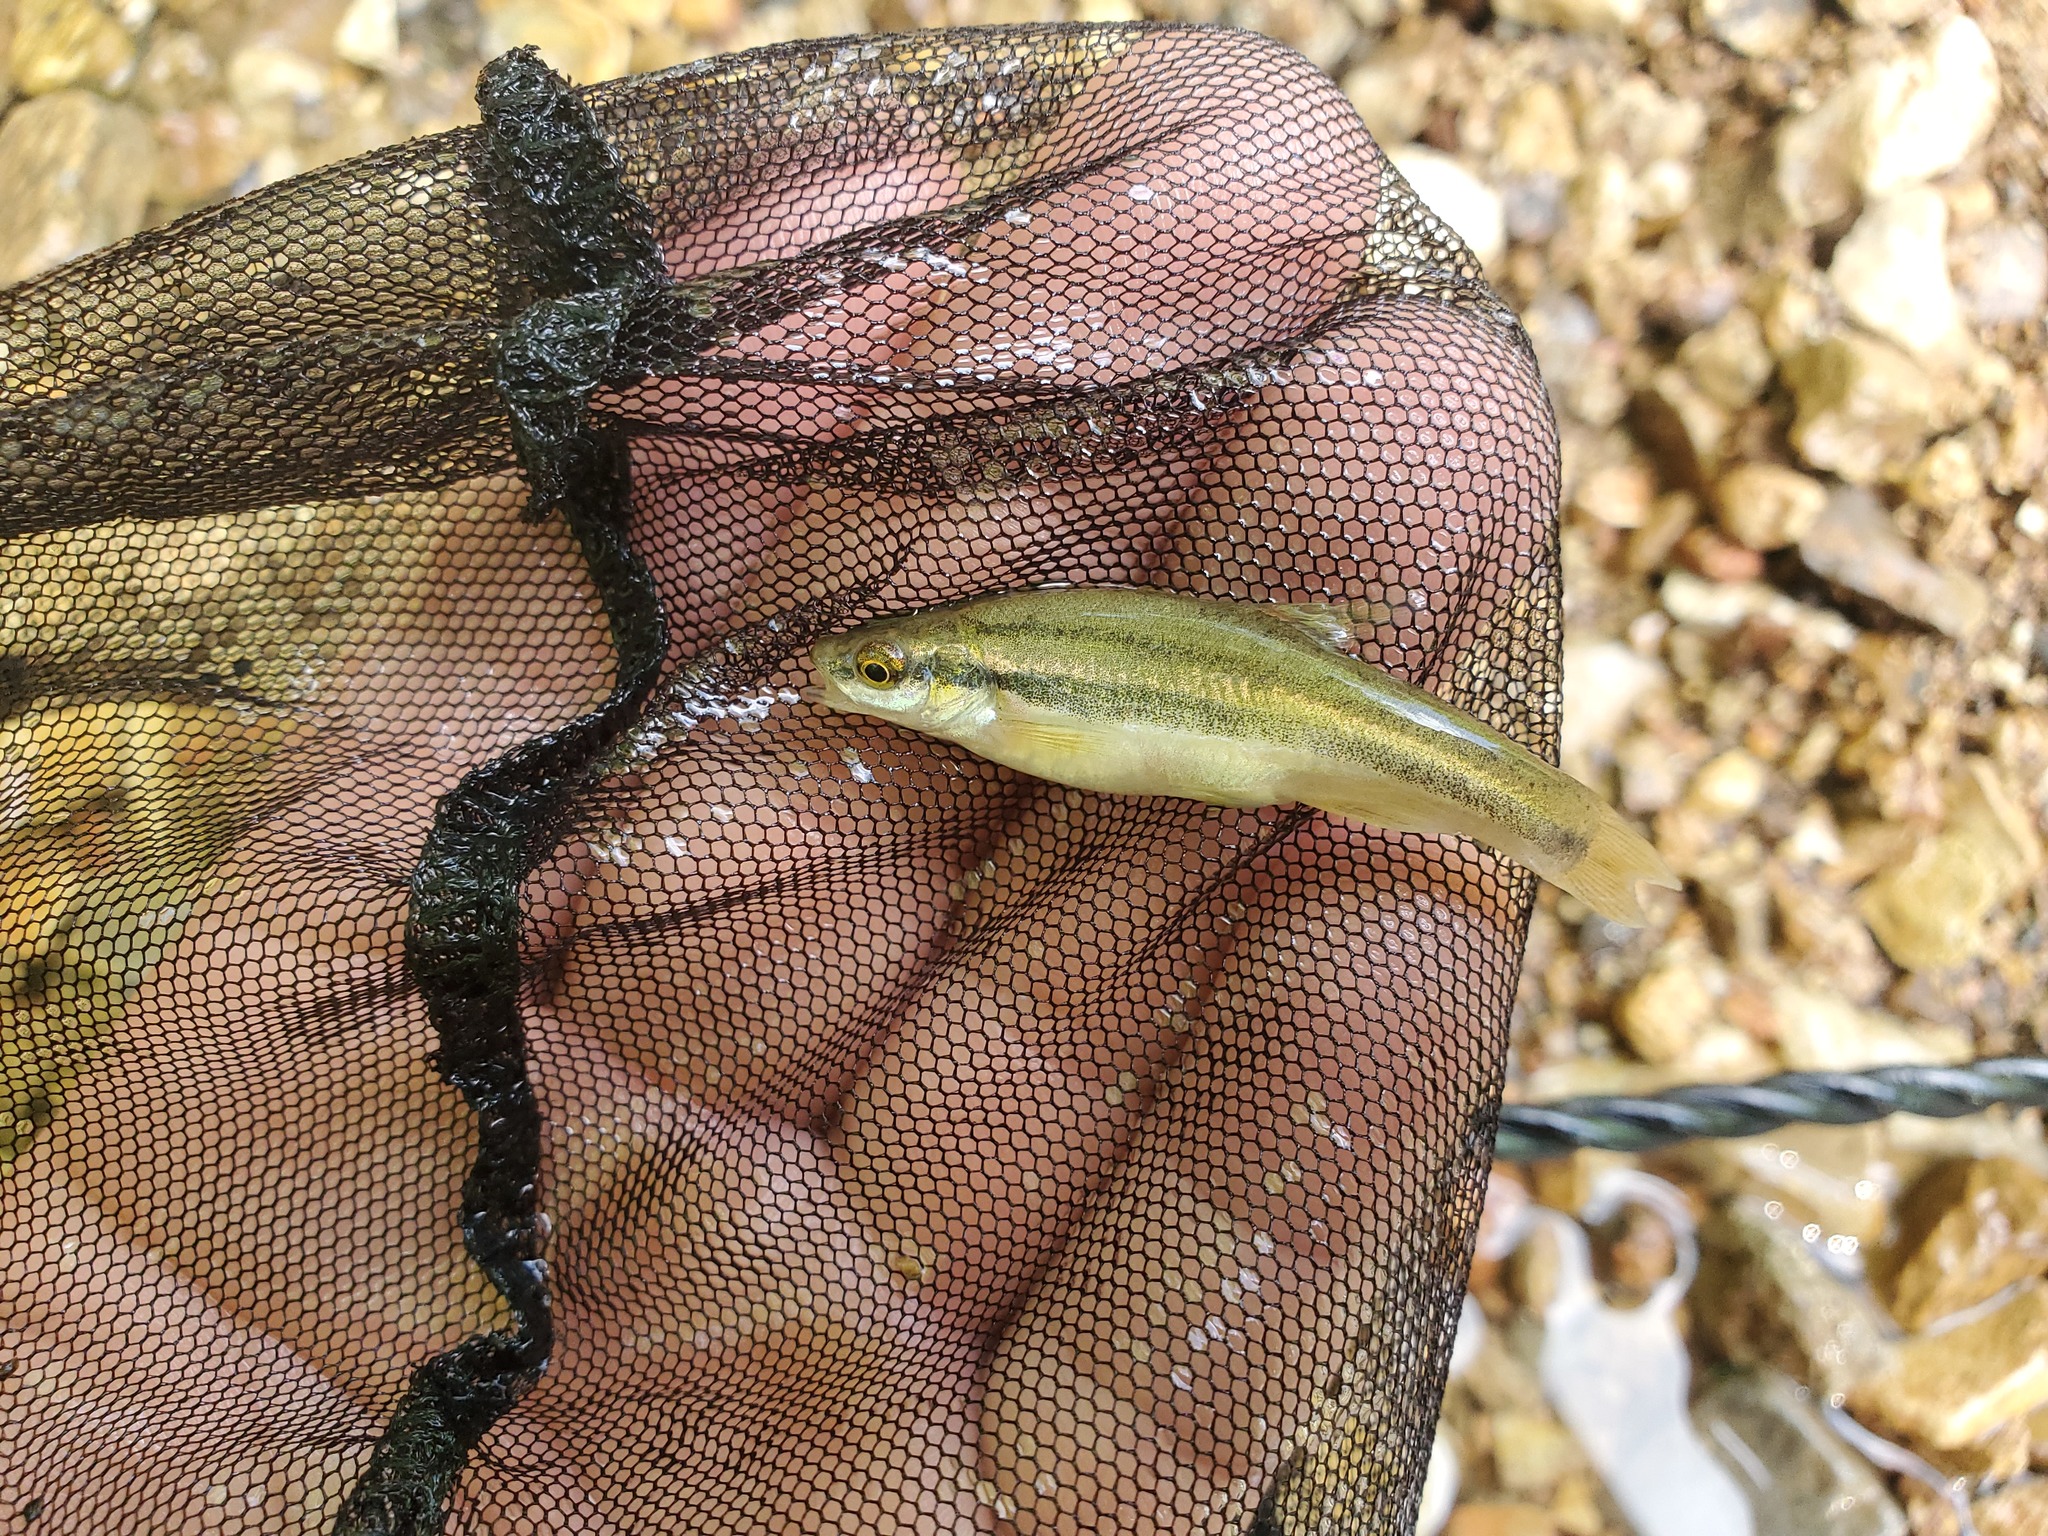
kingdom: Animalia
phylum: Chordata
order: Cypriniformes
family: Cyprinidae
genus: Chrosomus
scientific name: Chrosomus erythrogaster
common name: Southern redbelly dace
